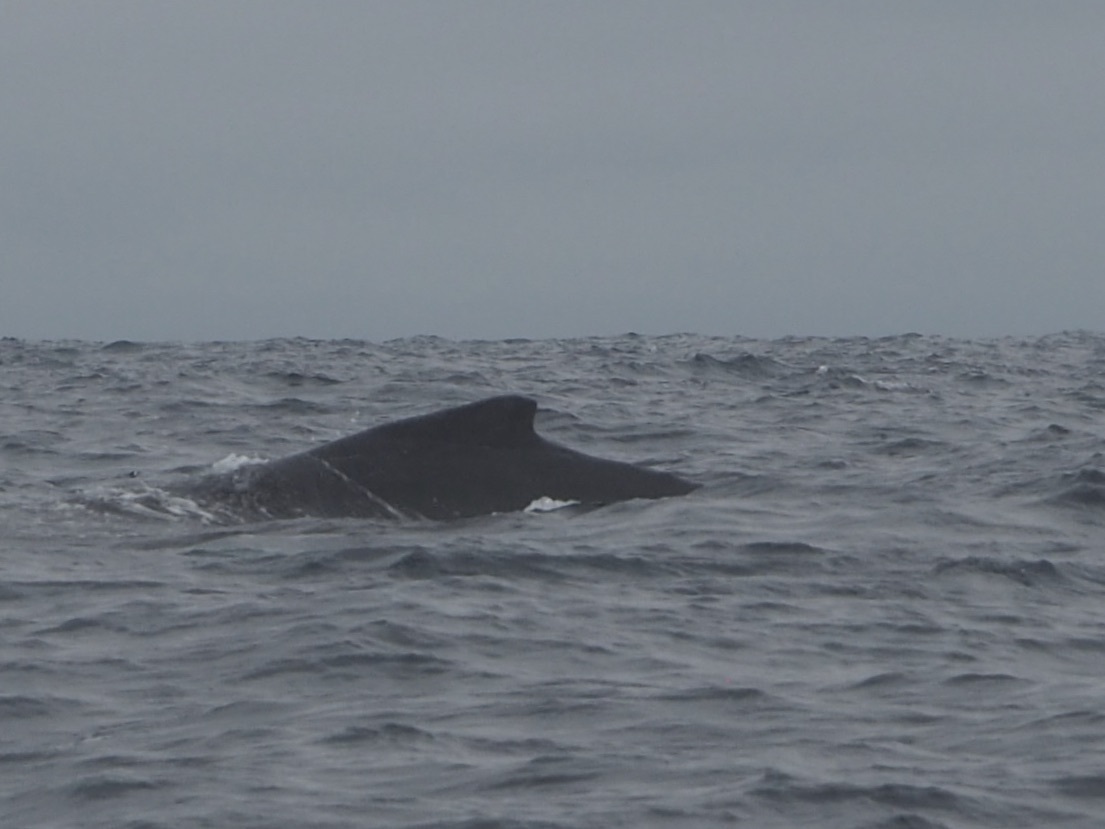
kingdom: Animalia
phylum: Chordata
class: Mammalia
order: Cetacea
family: Balaenopteridae
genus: Megaptera
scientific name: Megaptera novaeangliae
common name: Humpback whale
